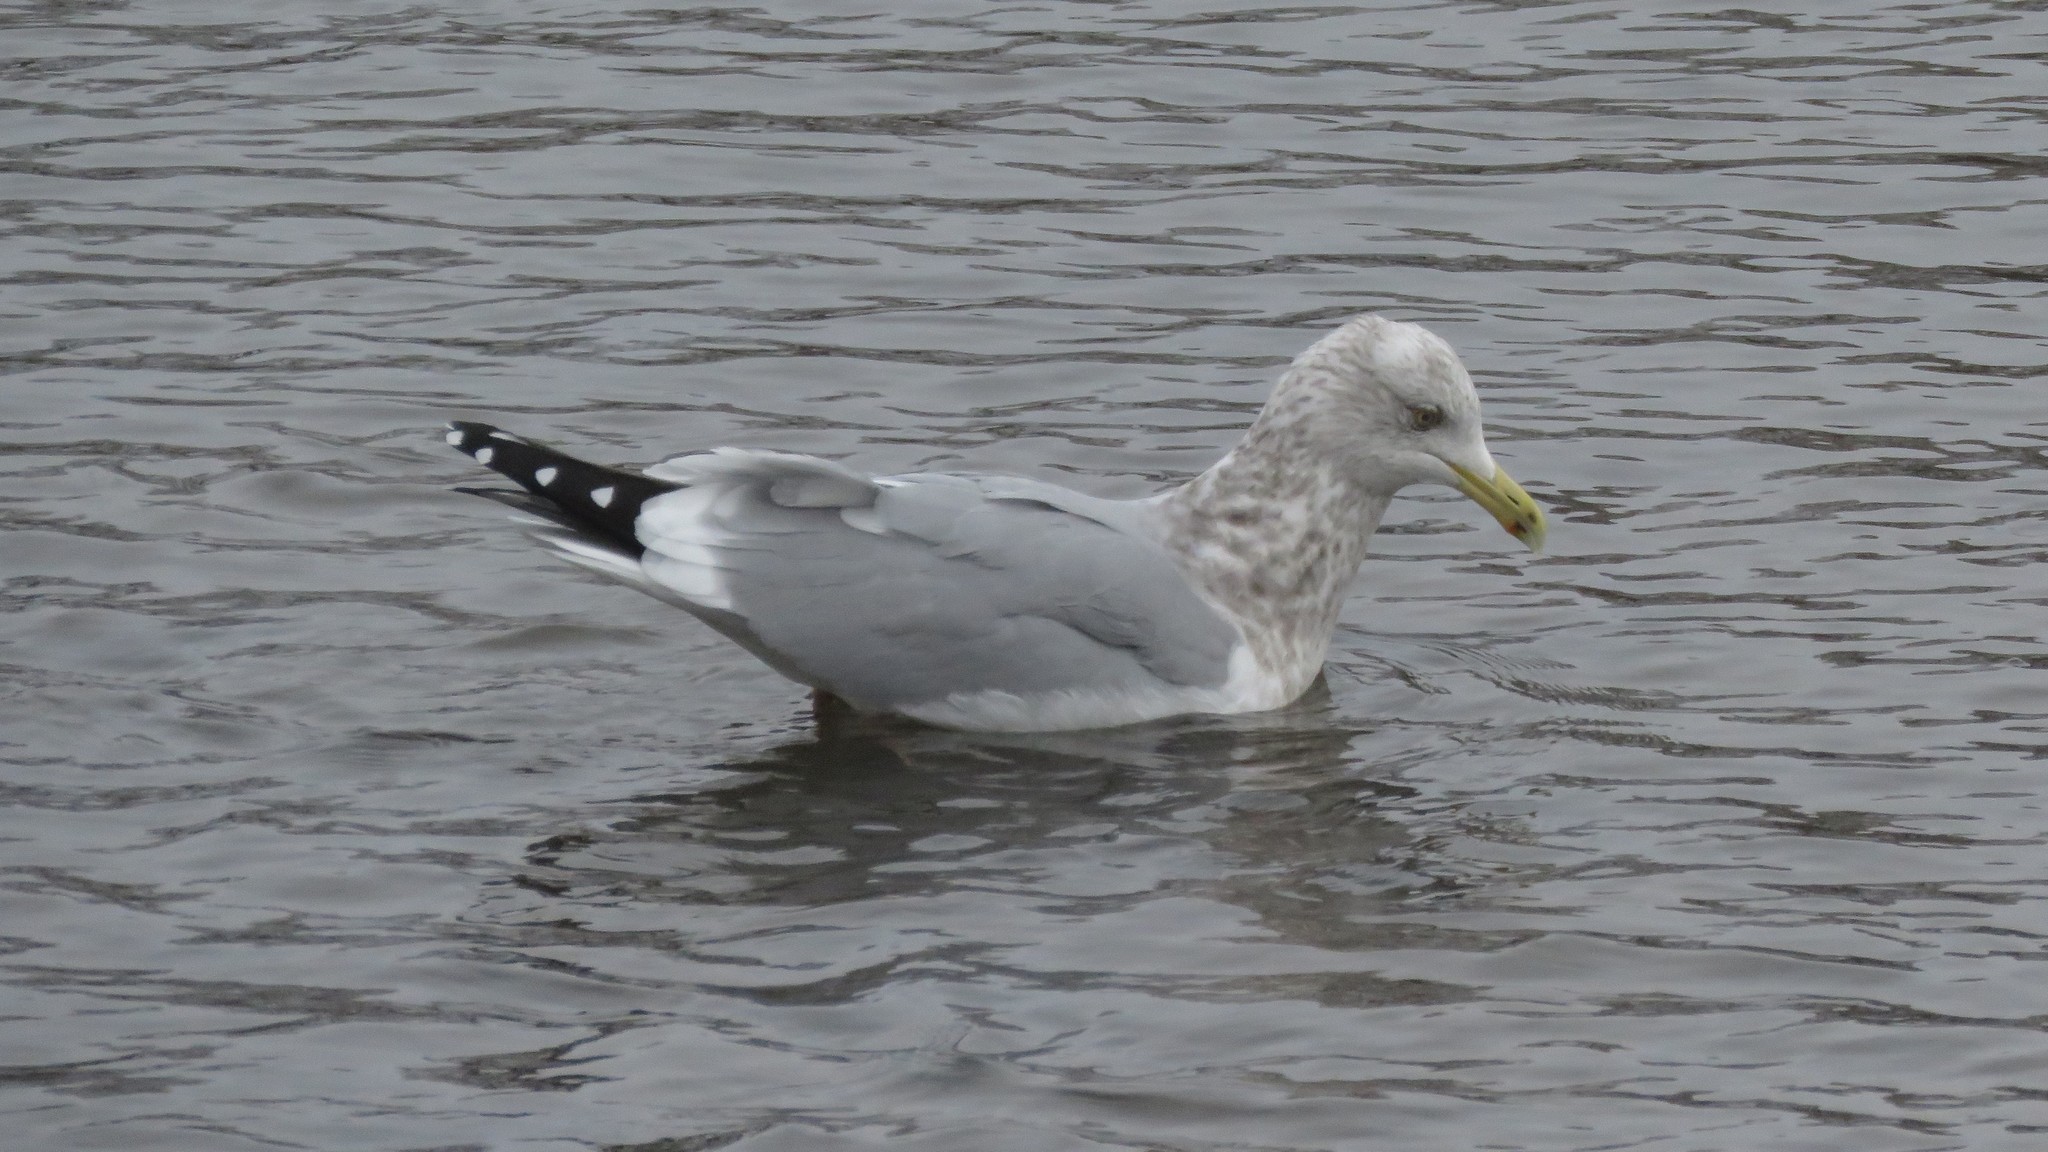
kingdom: Animalia
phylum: Chordata
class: Aves
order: Charadriiformes
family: Laridae
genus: Larus
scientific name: Larus argentatus
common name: Herring gull
